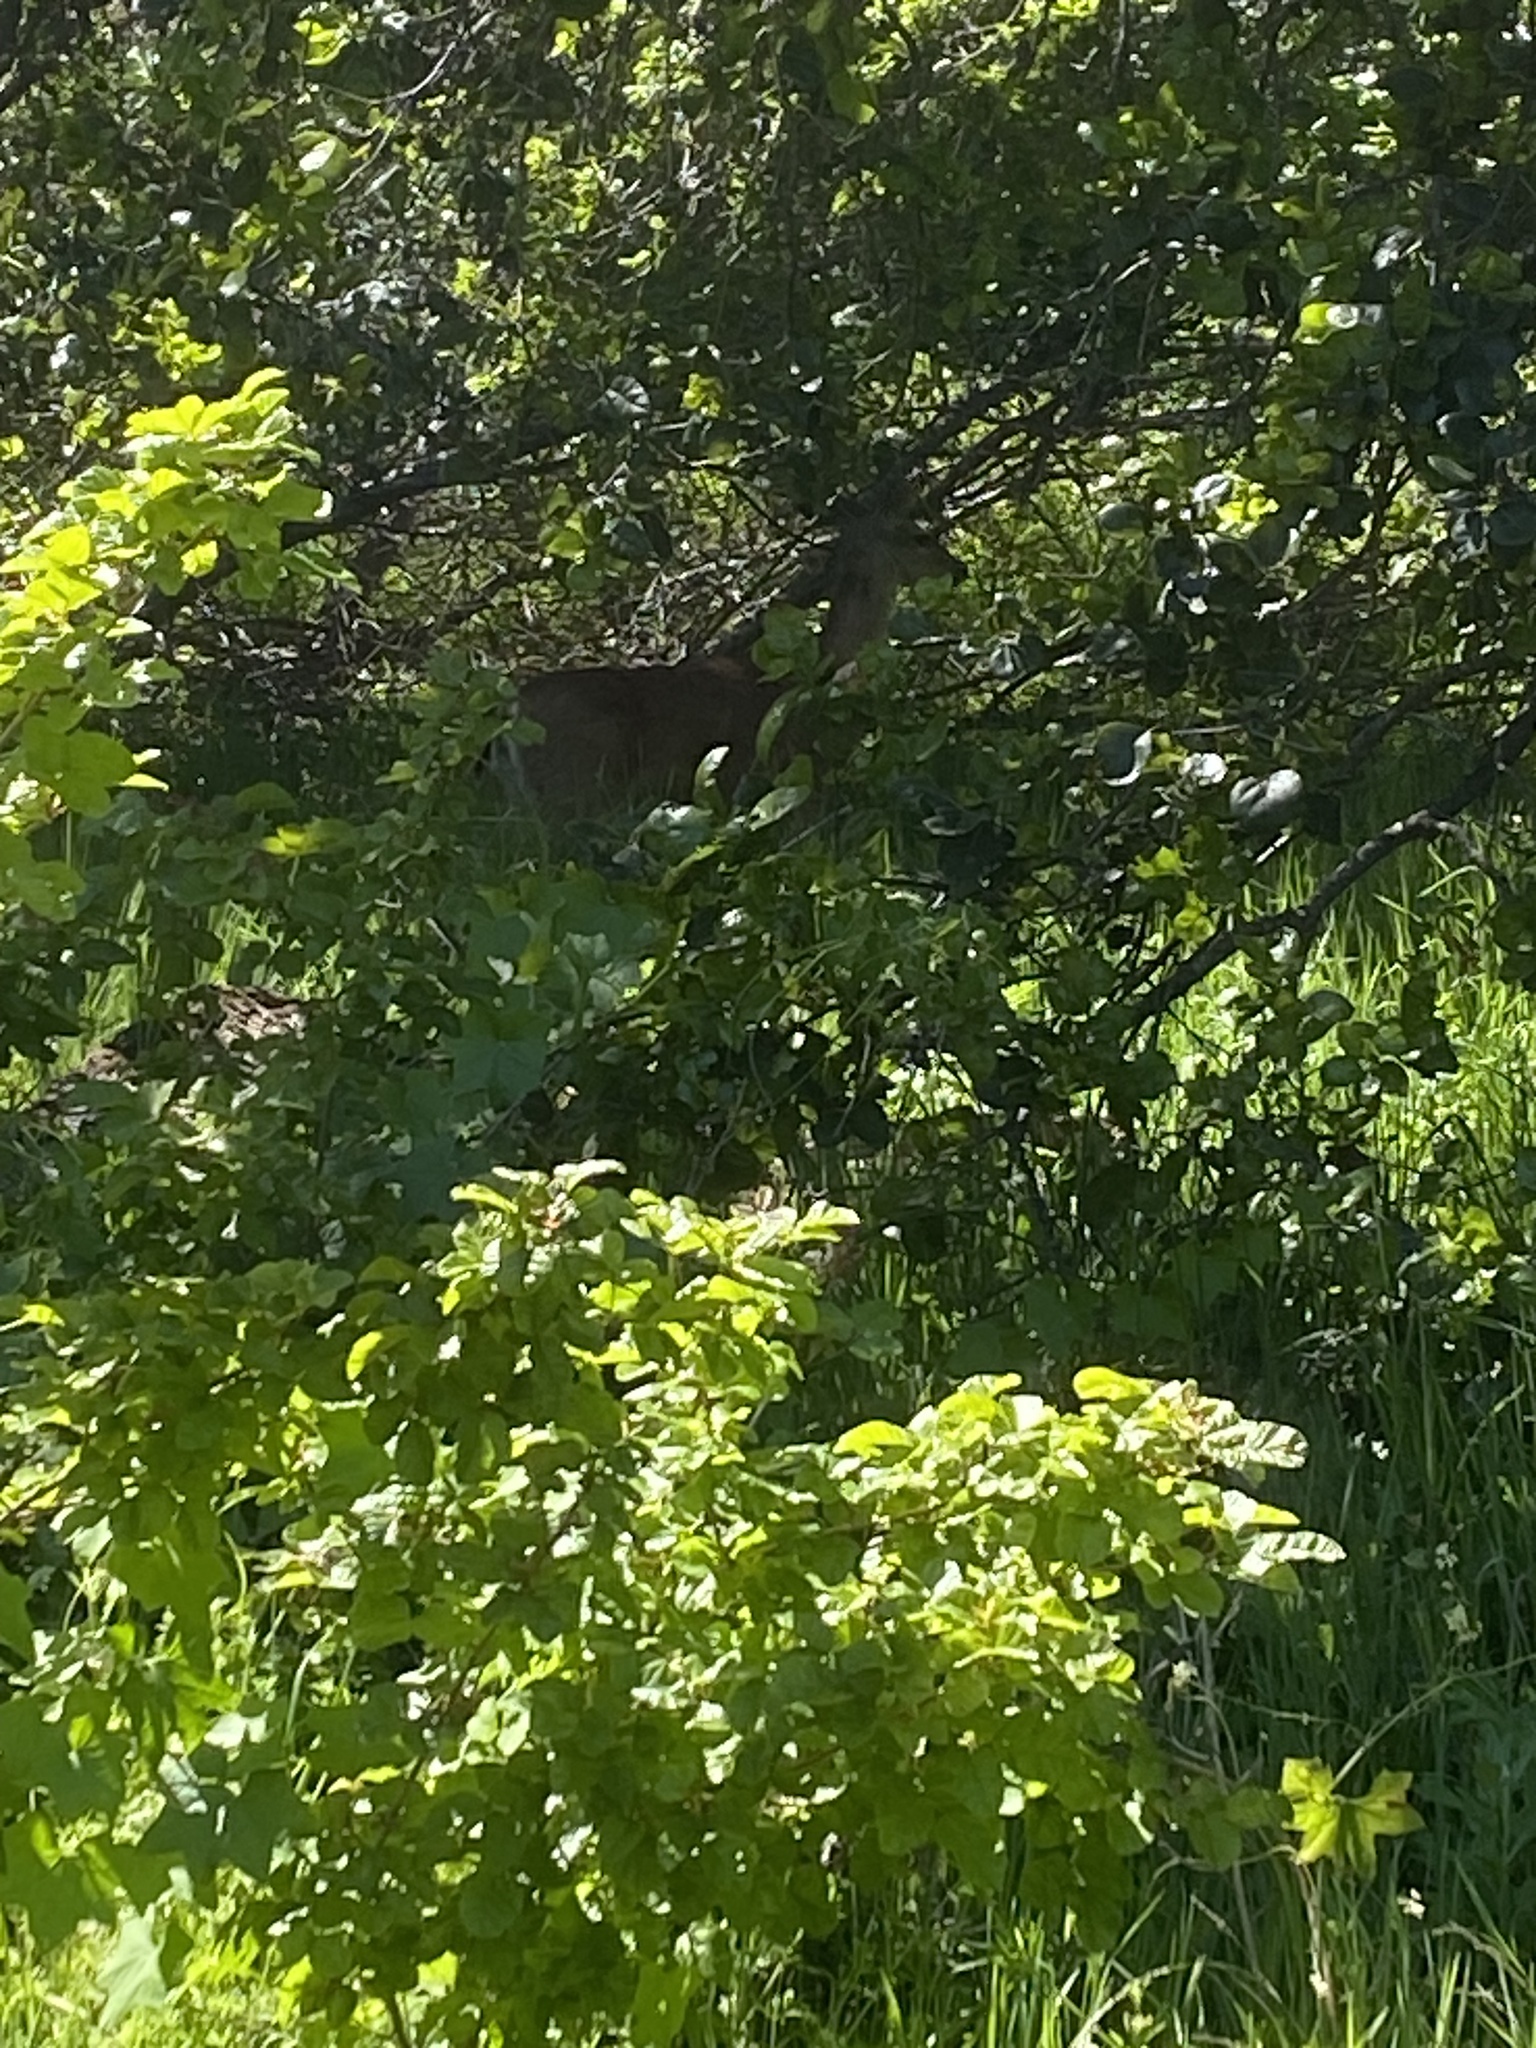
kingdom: Animalia
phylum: Chordata
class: Mammalia
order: Artiodactyla
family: Cervidae
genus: Odocoileus
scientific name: Odocoileus hemionus
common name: Mule deer
